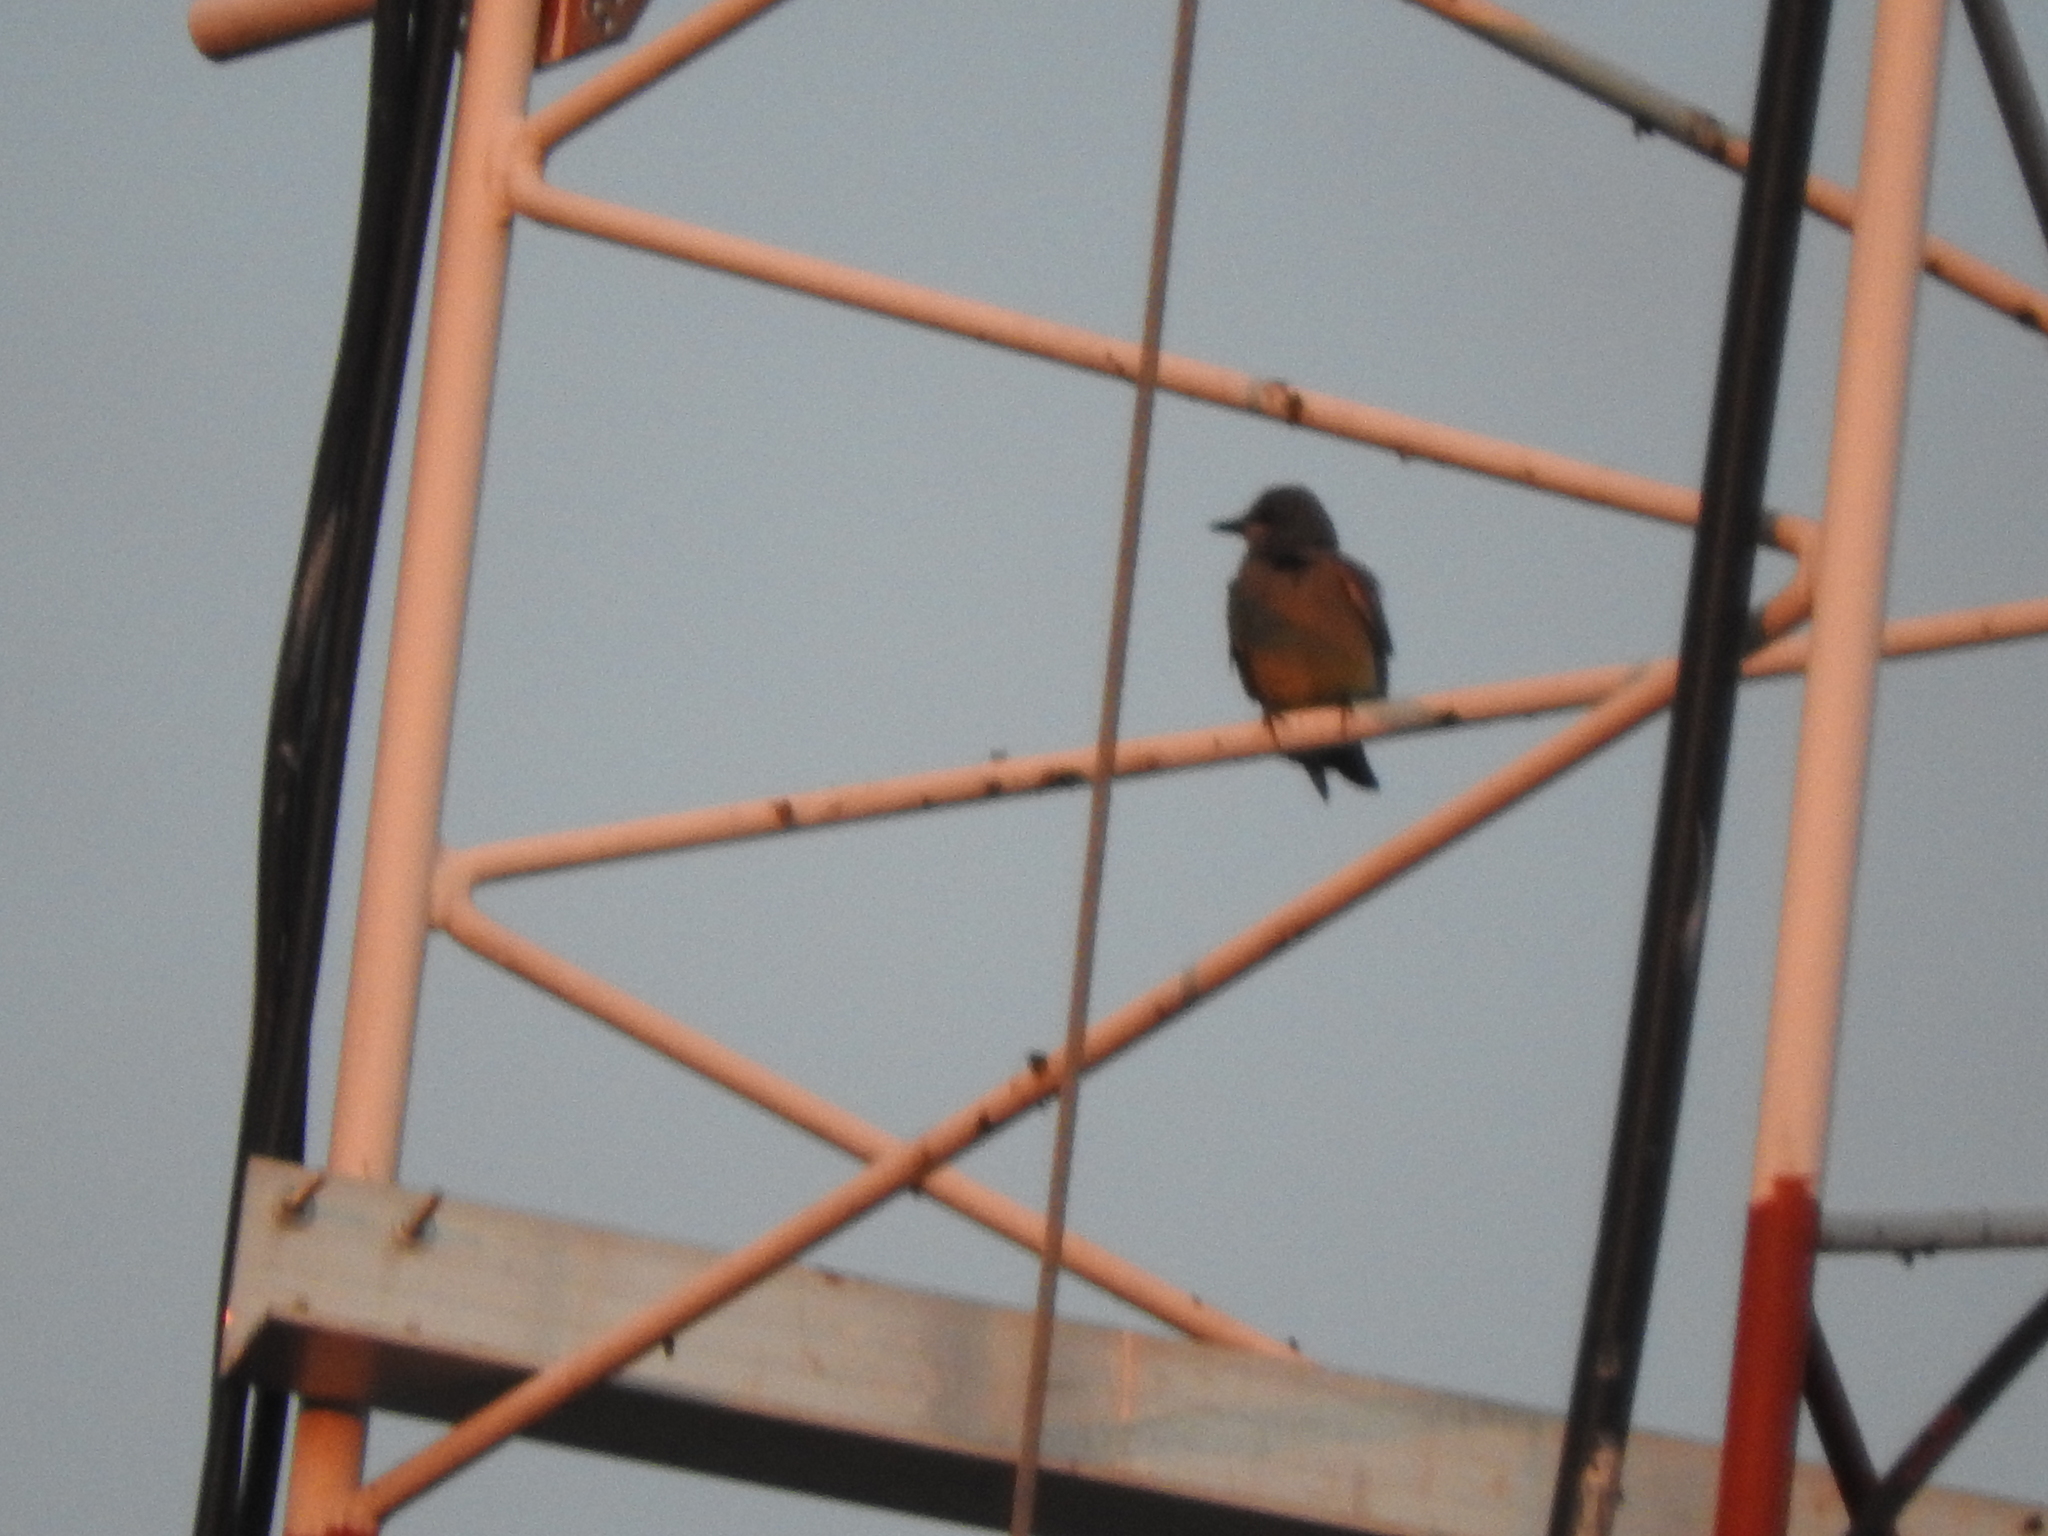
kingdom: Animalia
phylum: Chordata
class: Aves
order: Passeriformes
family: Tyrannidae
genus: Tyrannus
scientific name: Tyrannus vociferans
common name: Cassin's kingbird
